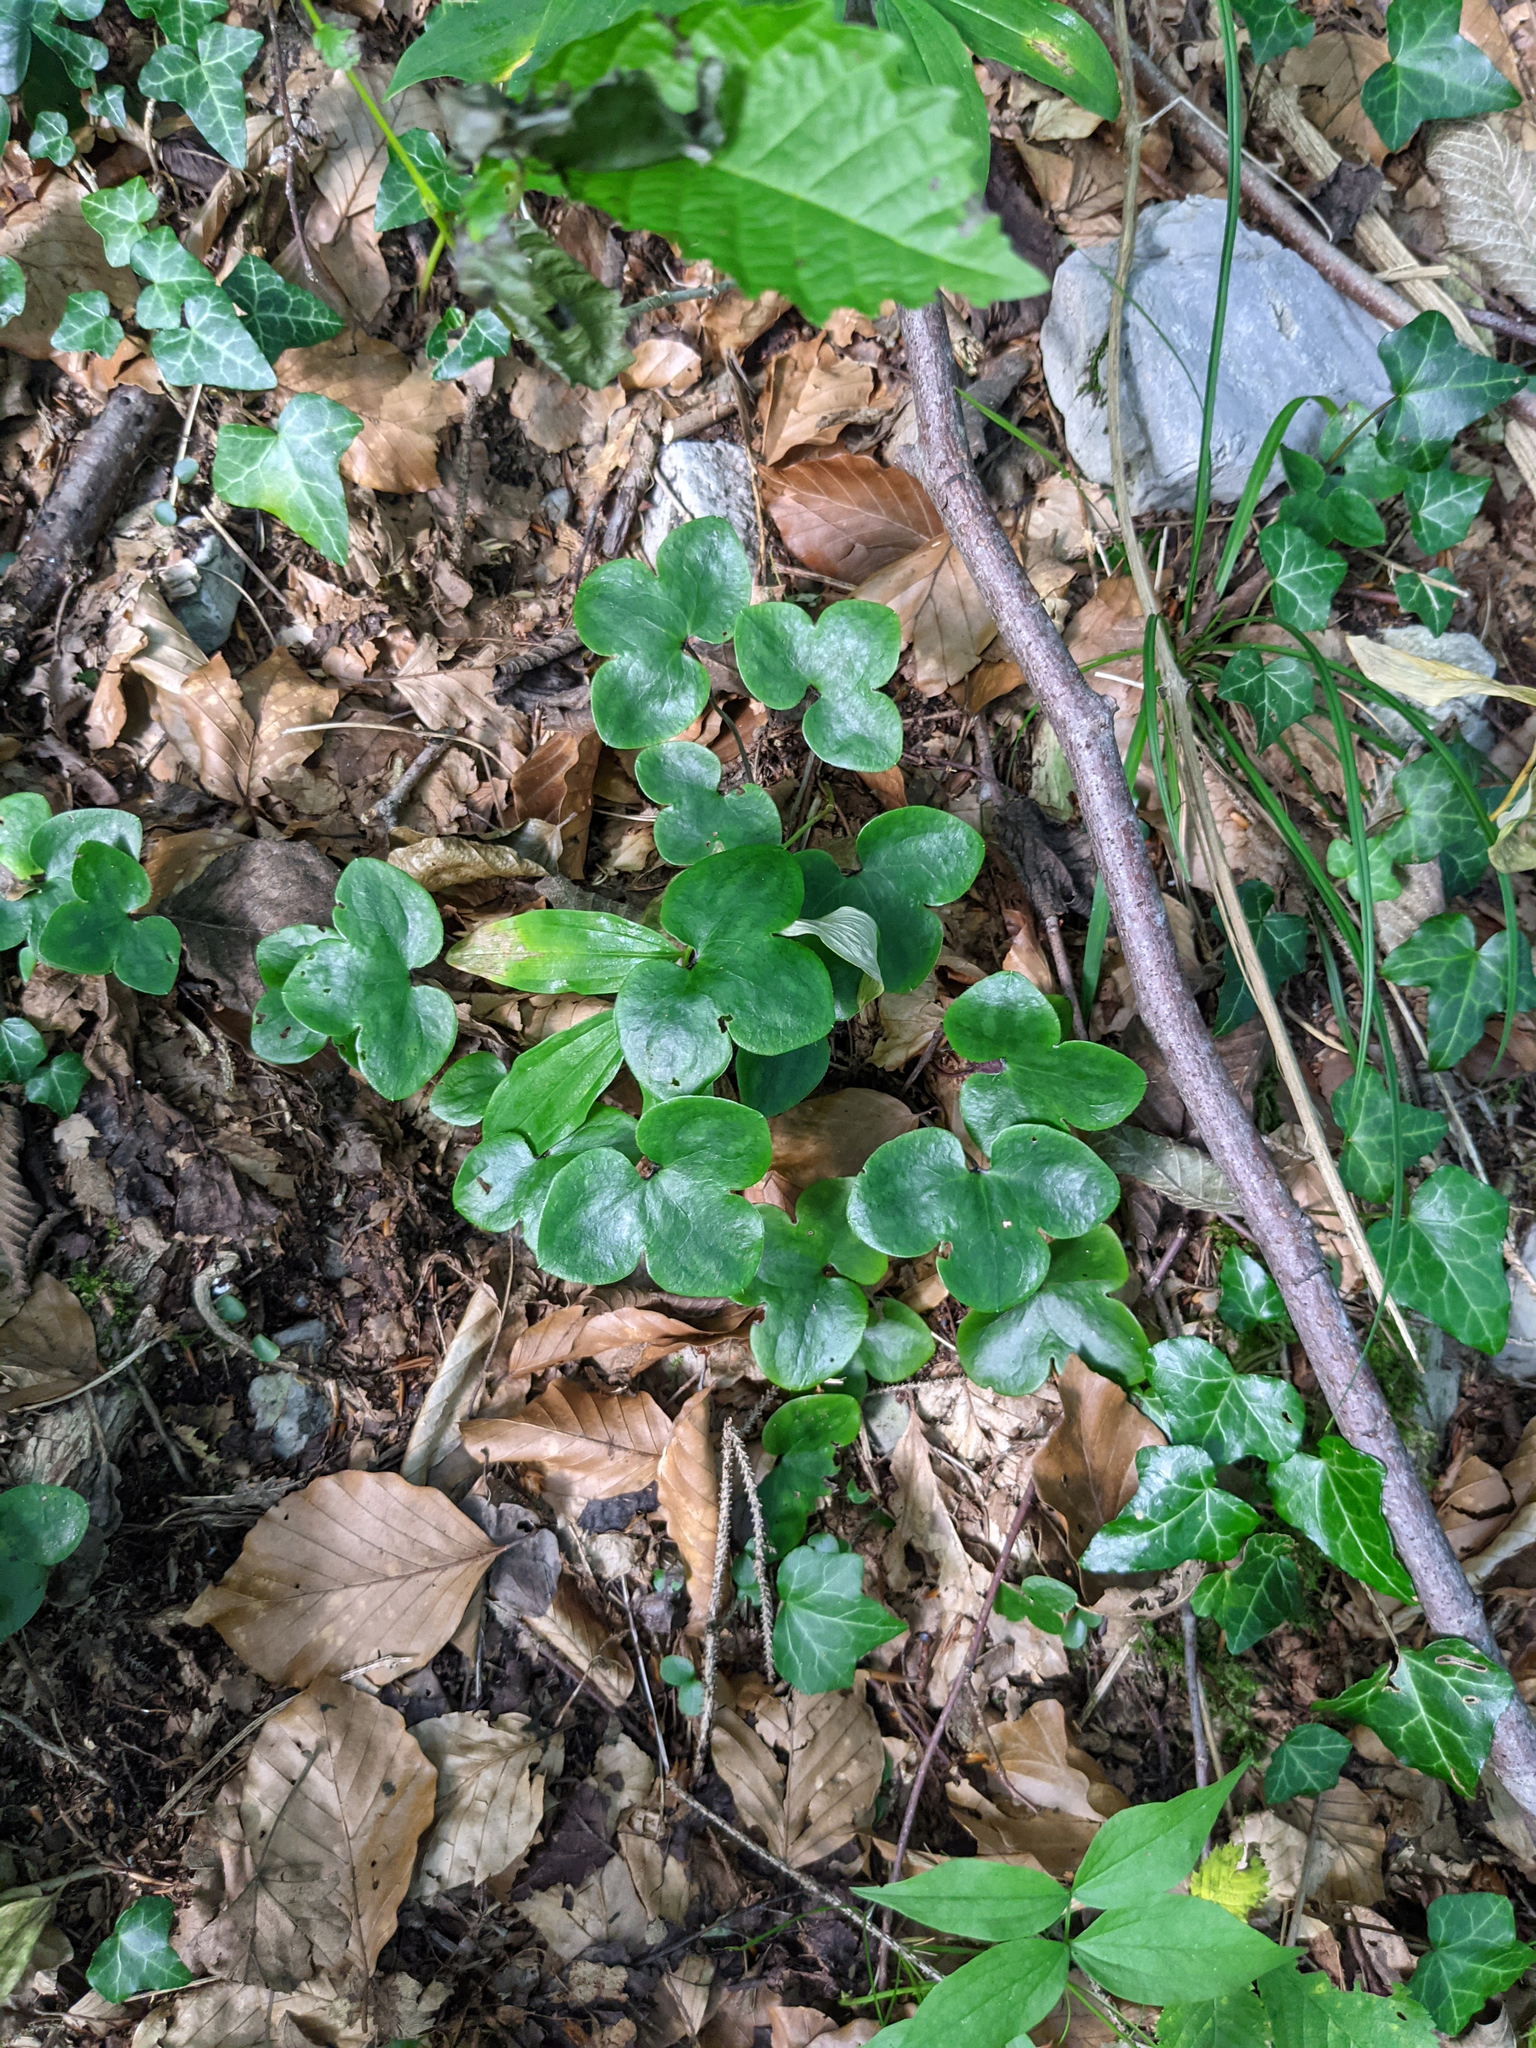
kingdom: Plantae
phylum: Tracheophyta
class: Magnoliopsida
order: Ranunculales
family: Ranunculaceae
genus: Hepatica
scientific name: Hepatica nobilis
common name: Liverleaf
